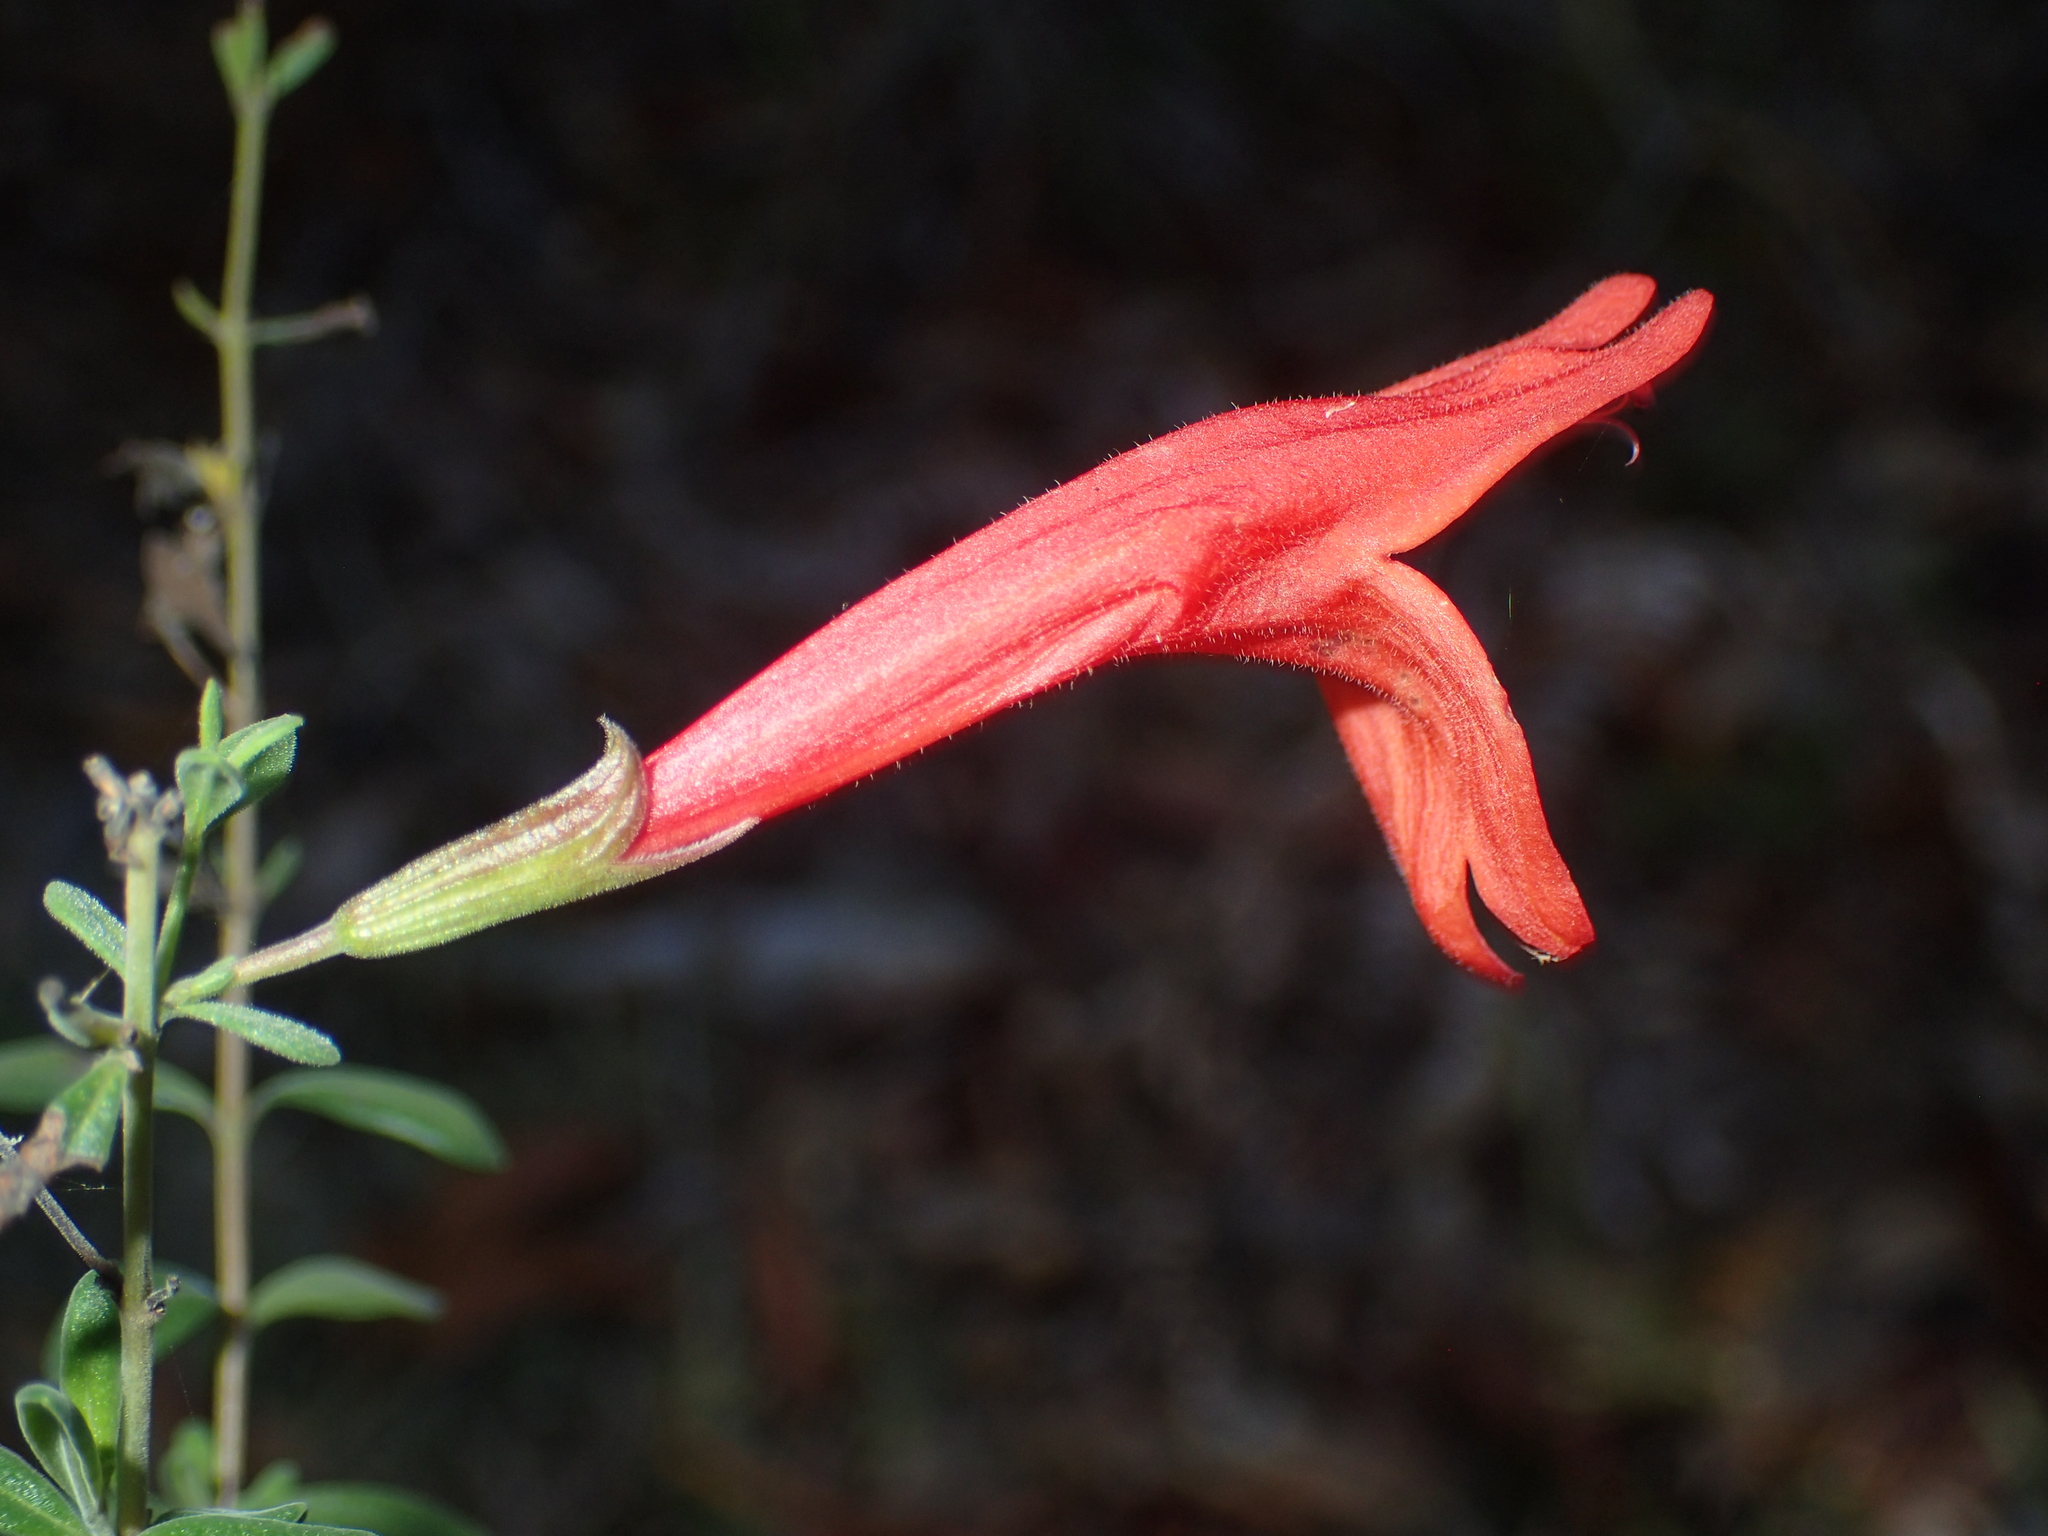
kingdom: Plantae
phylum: Tracheophyta
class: Magnoliopsida
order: Lamiales
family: Lamiaceae
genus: Clinopodium
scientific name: Clinopodium coccineum
